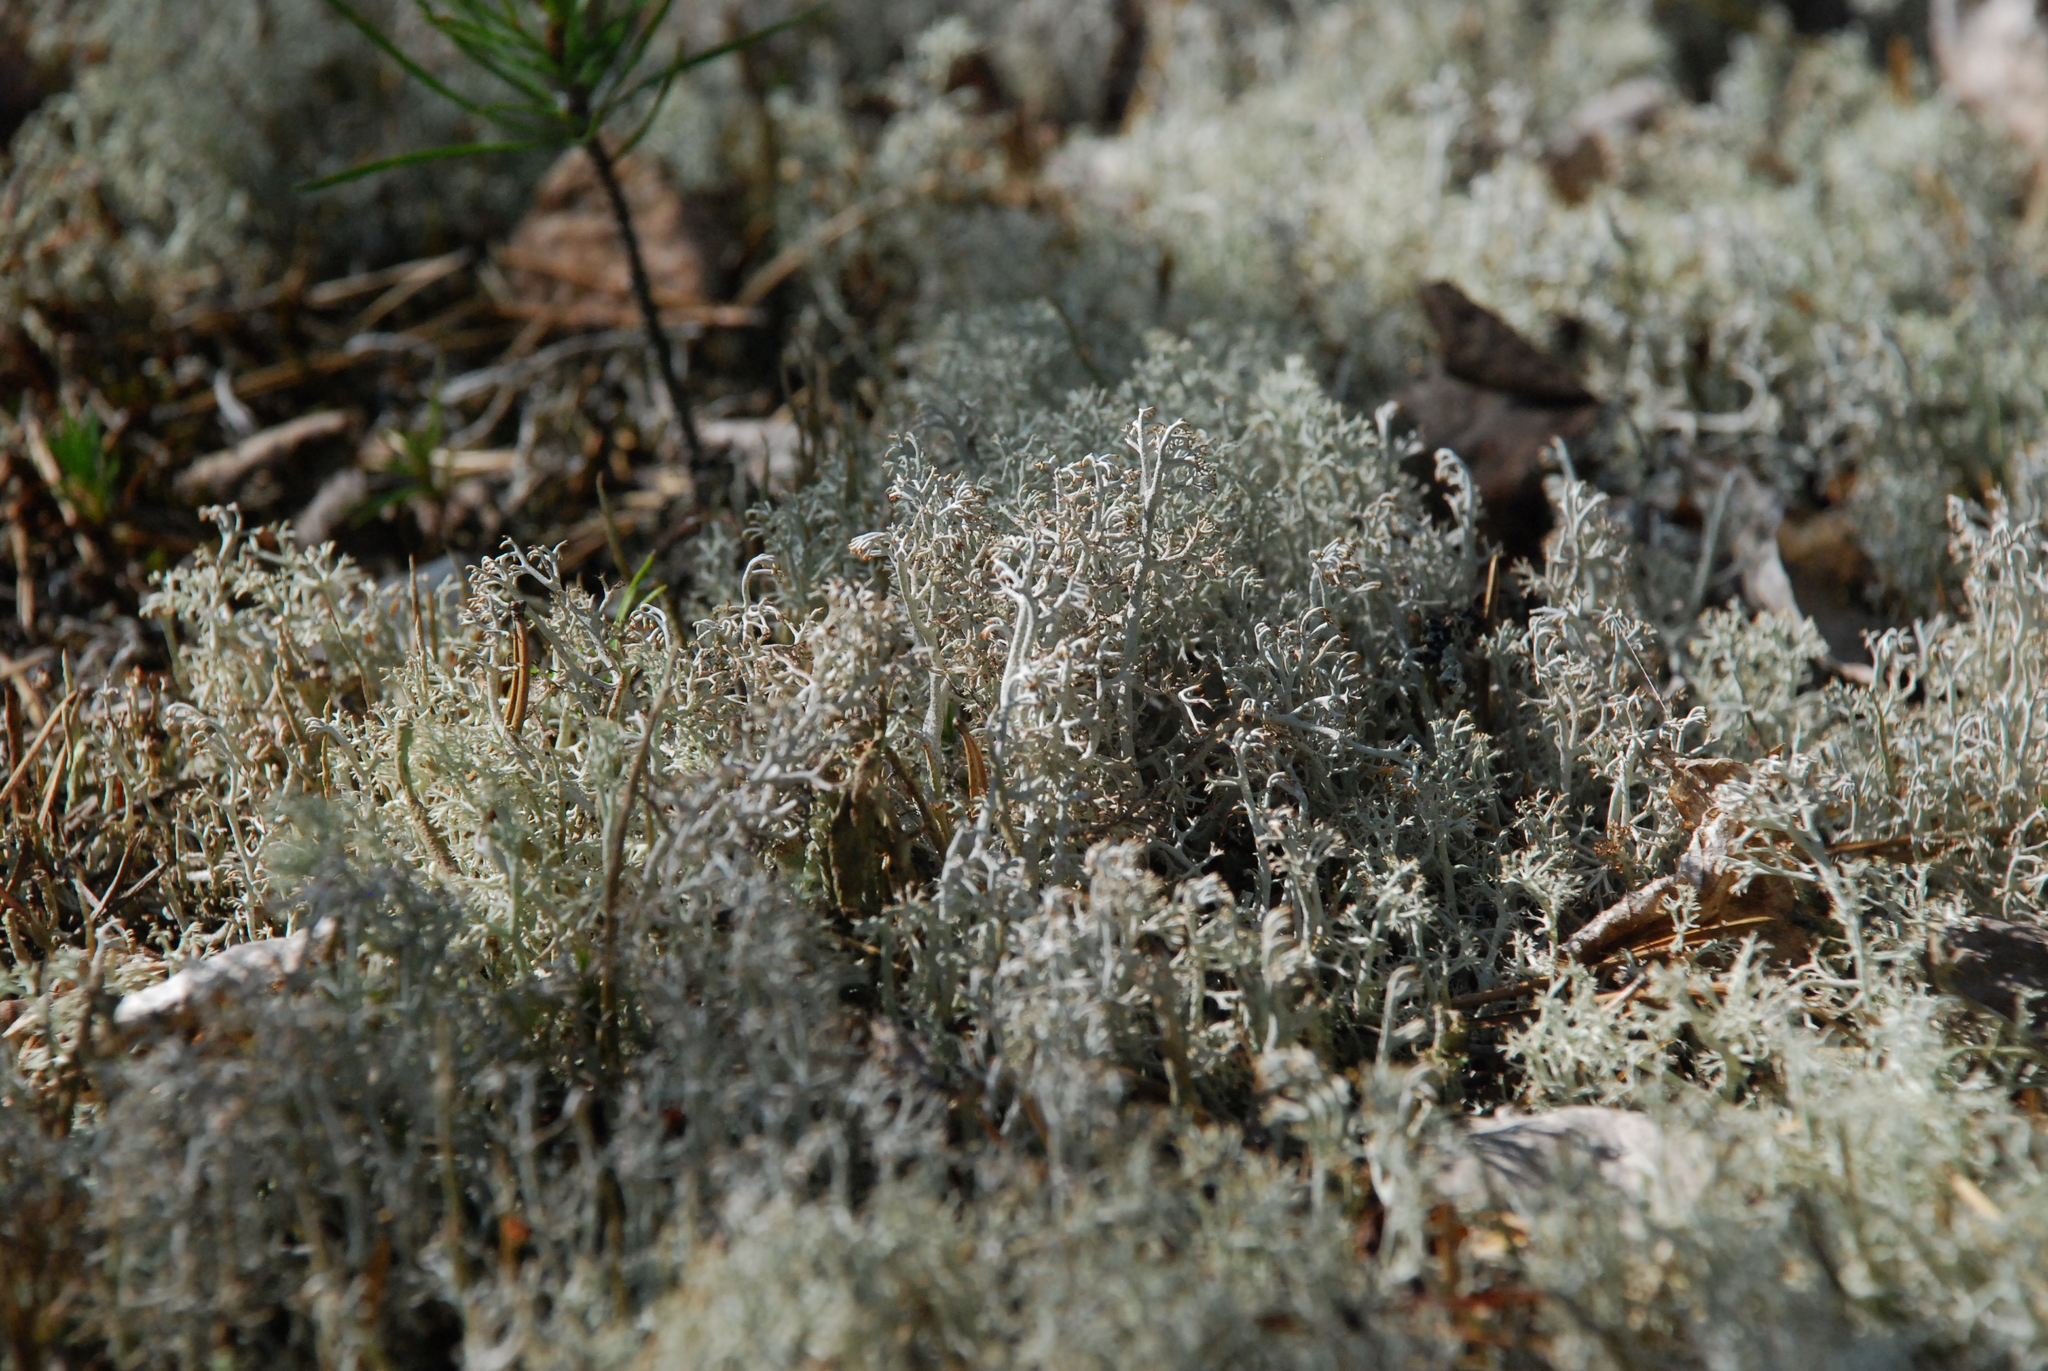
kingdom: Fungi
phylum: Ascomycota
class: Lecanoromycetes
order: Lecanorales
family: Cladoniaceae
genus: Cladonia
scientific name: Cladonia rangiferina
